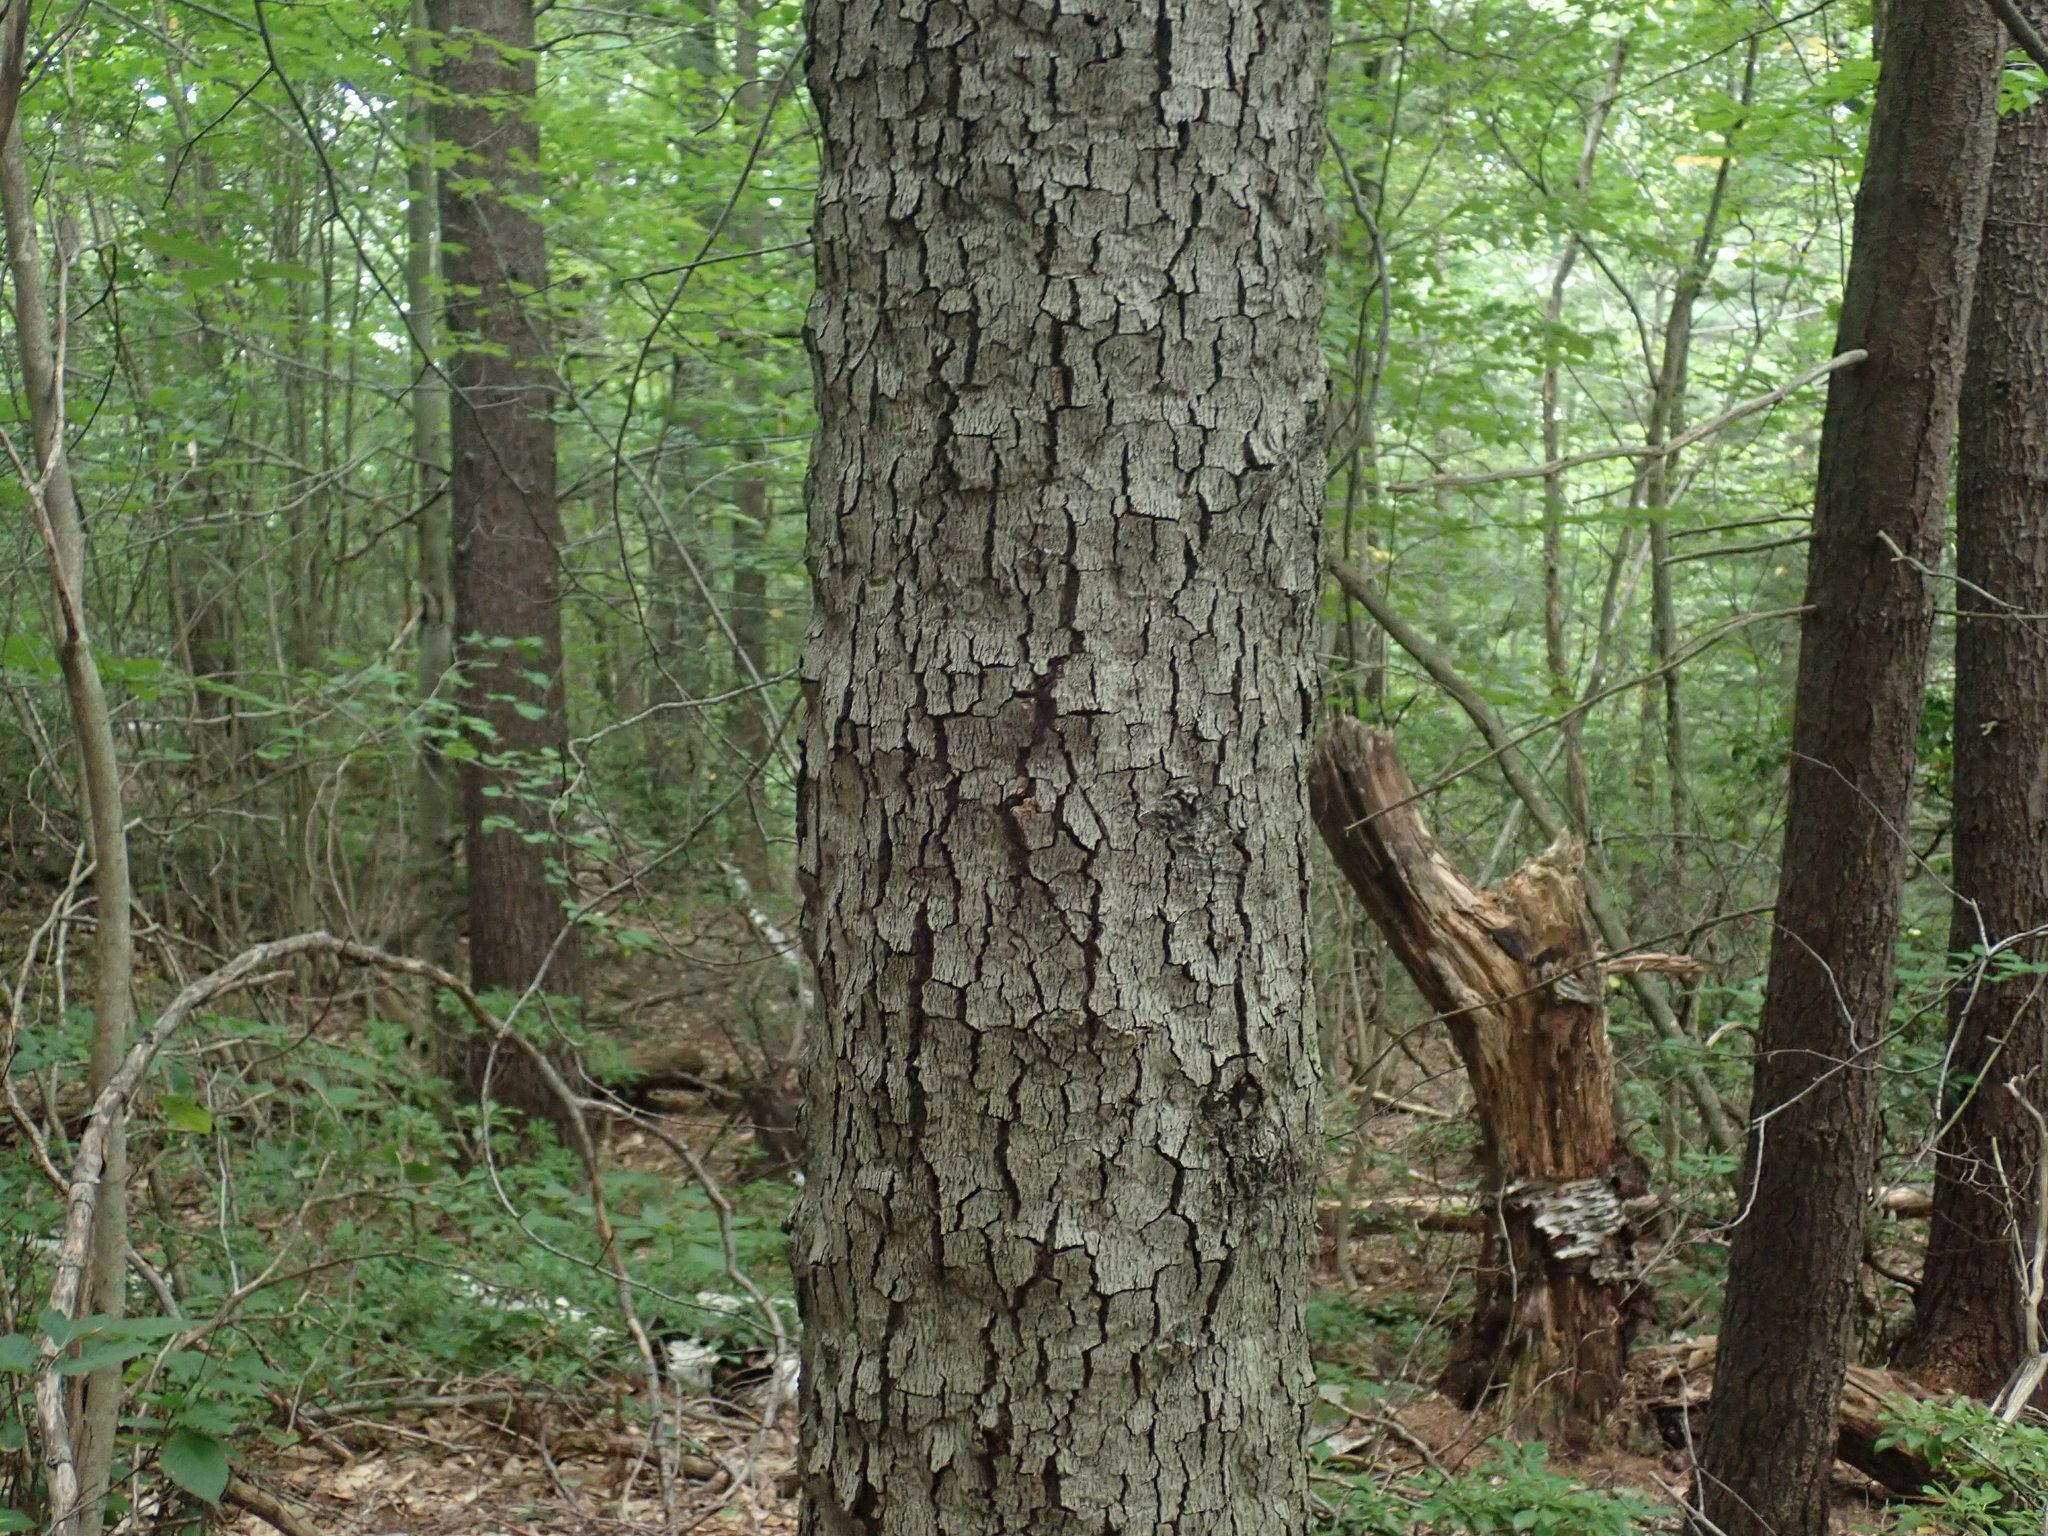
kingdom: Fungi
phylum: Ascomycota
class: Sordariomycetes
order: Hypocreales
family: Nectriaceae
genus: Neonectria
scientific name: Neonectria faginata
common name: Beech bark canker
